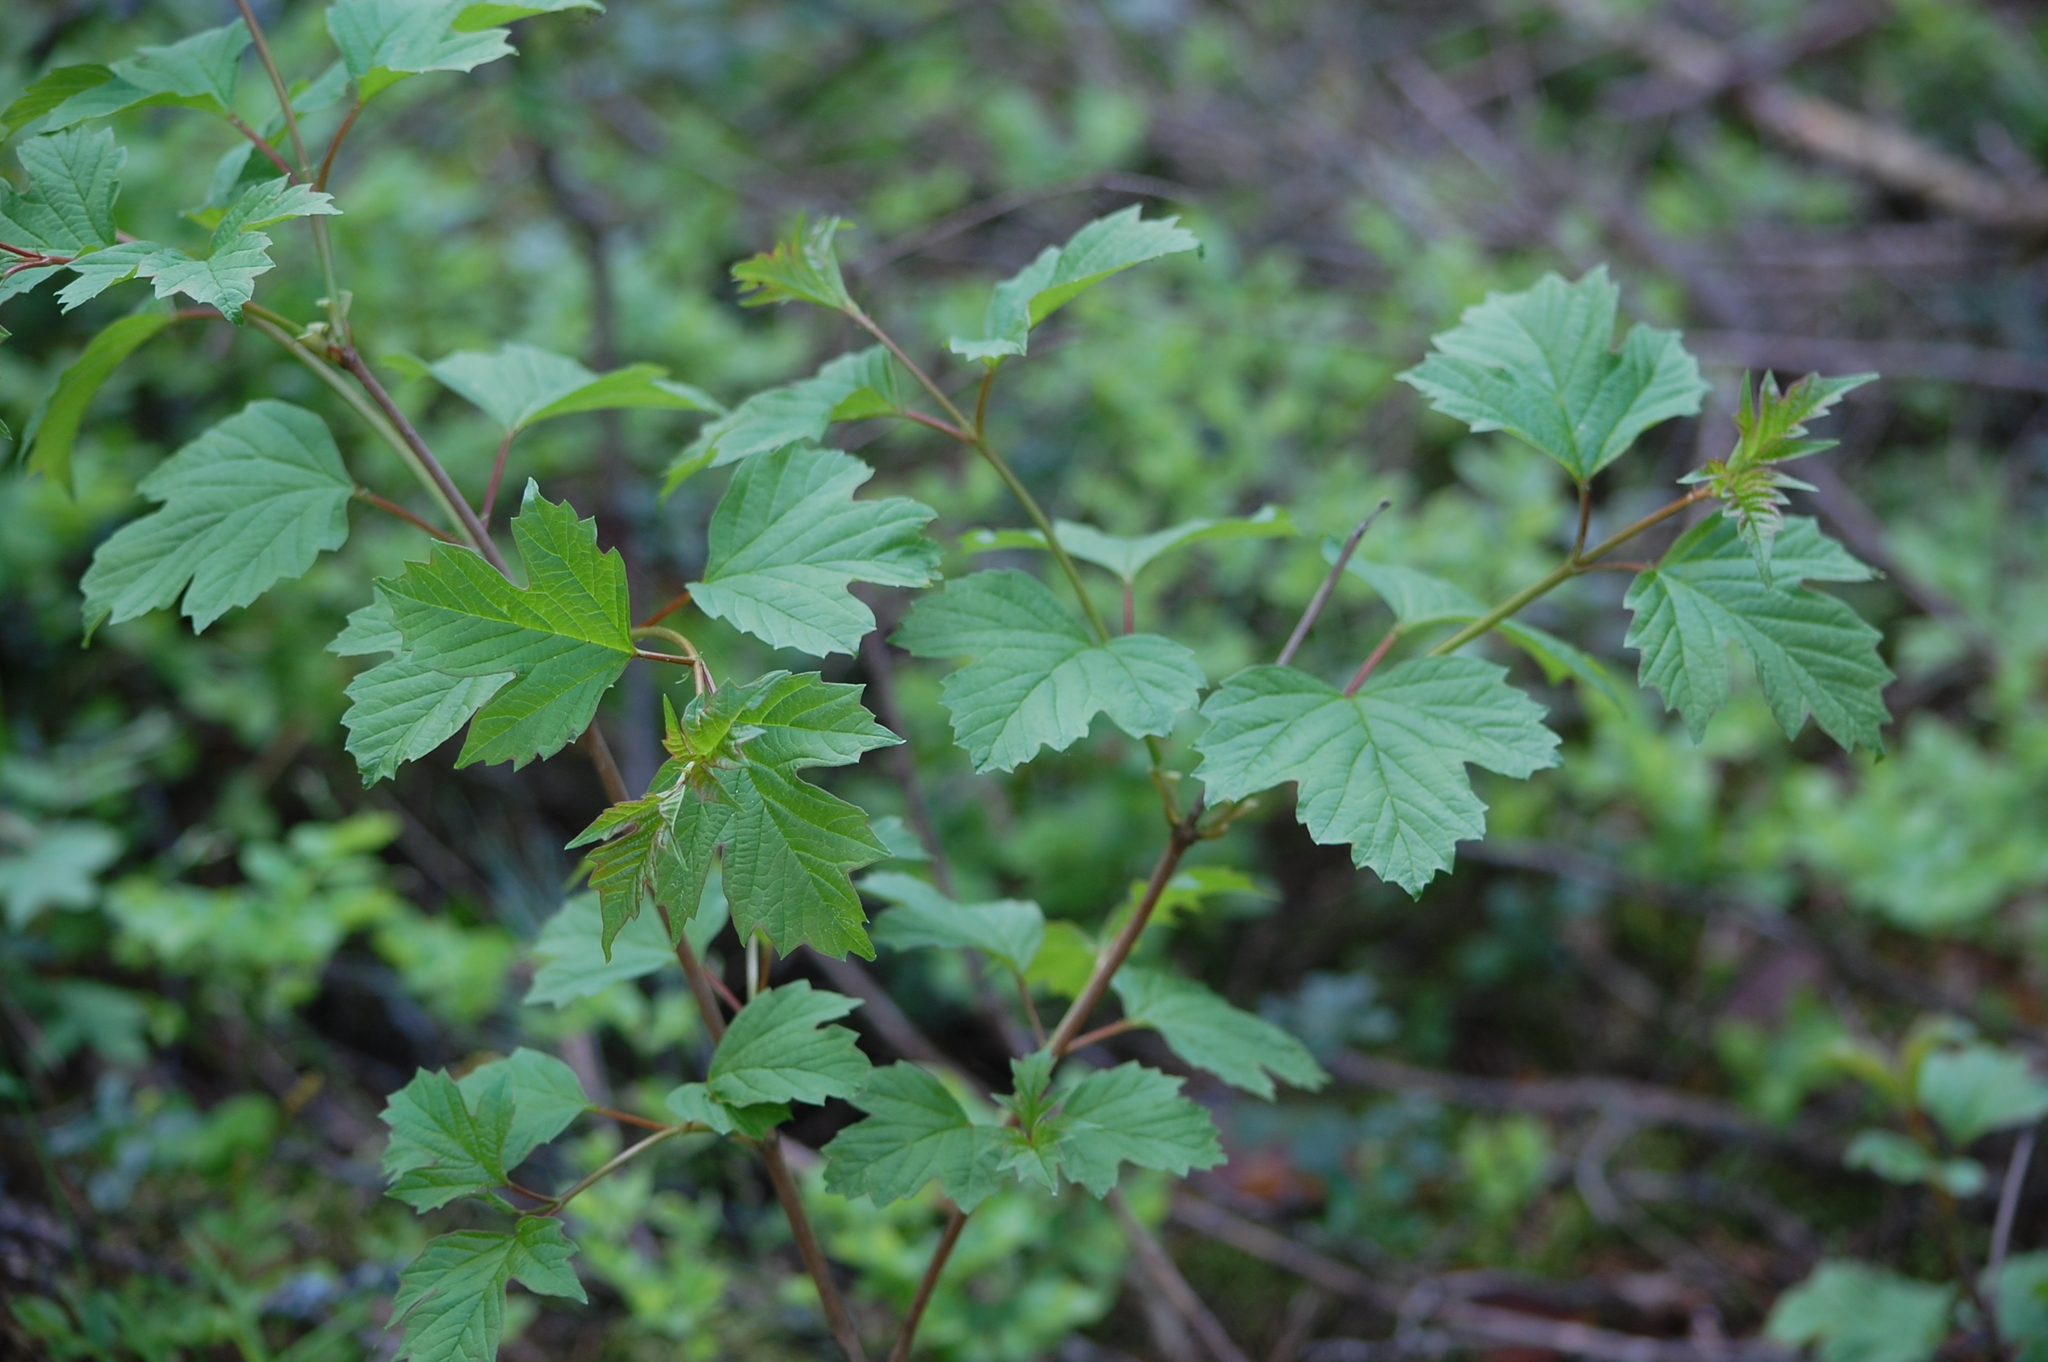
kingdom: Plantae
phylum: Tracheophyta
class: Magnoliopsida
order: Dipsacales
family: Viburnaceae
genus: Viburnum
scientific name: Viburnum opulus
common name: Guelder-rose
